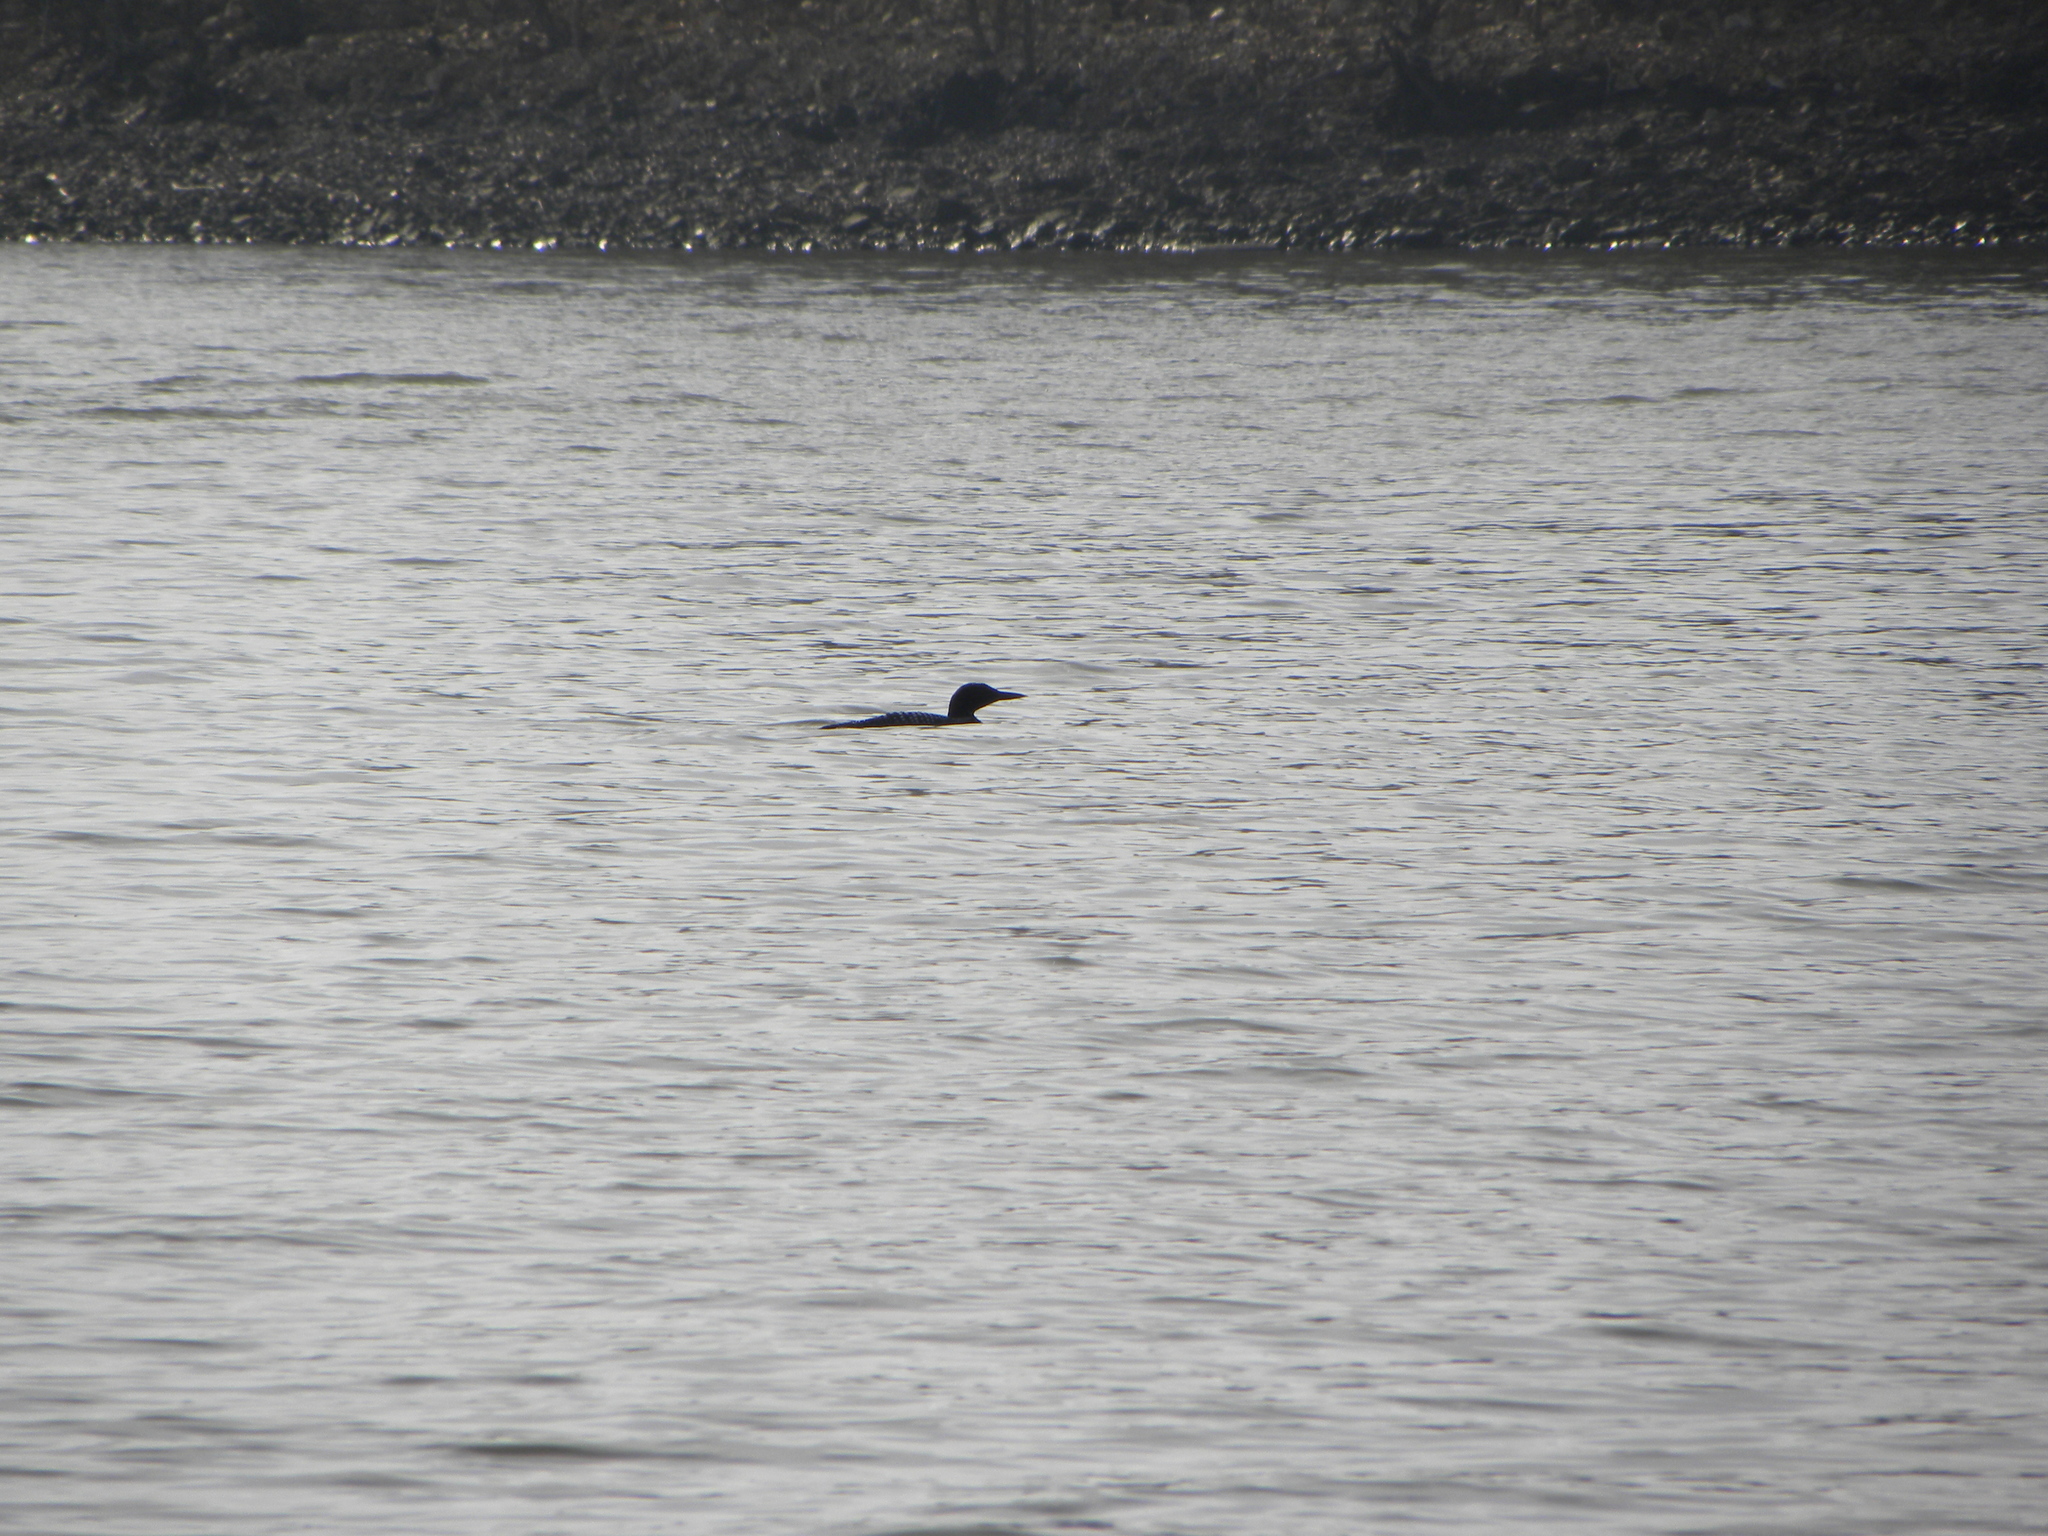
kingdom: Animalia
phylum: Chordata
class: Aves
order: Gaviiformes
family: Gaviidae
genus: Gavia
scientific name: Gavia immer
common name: Common loon
